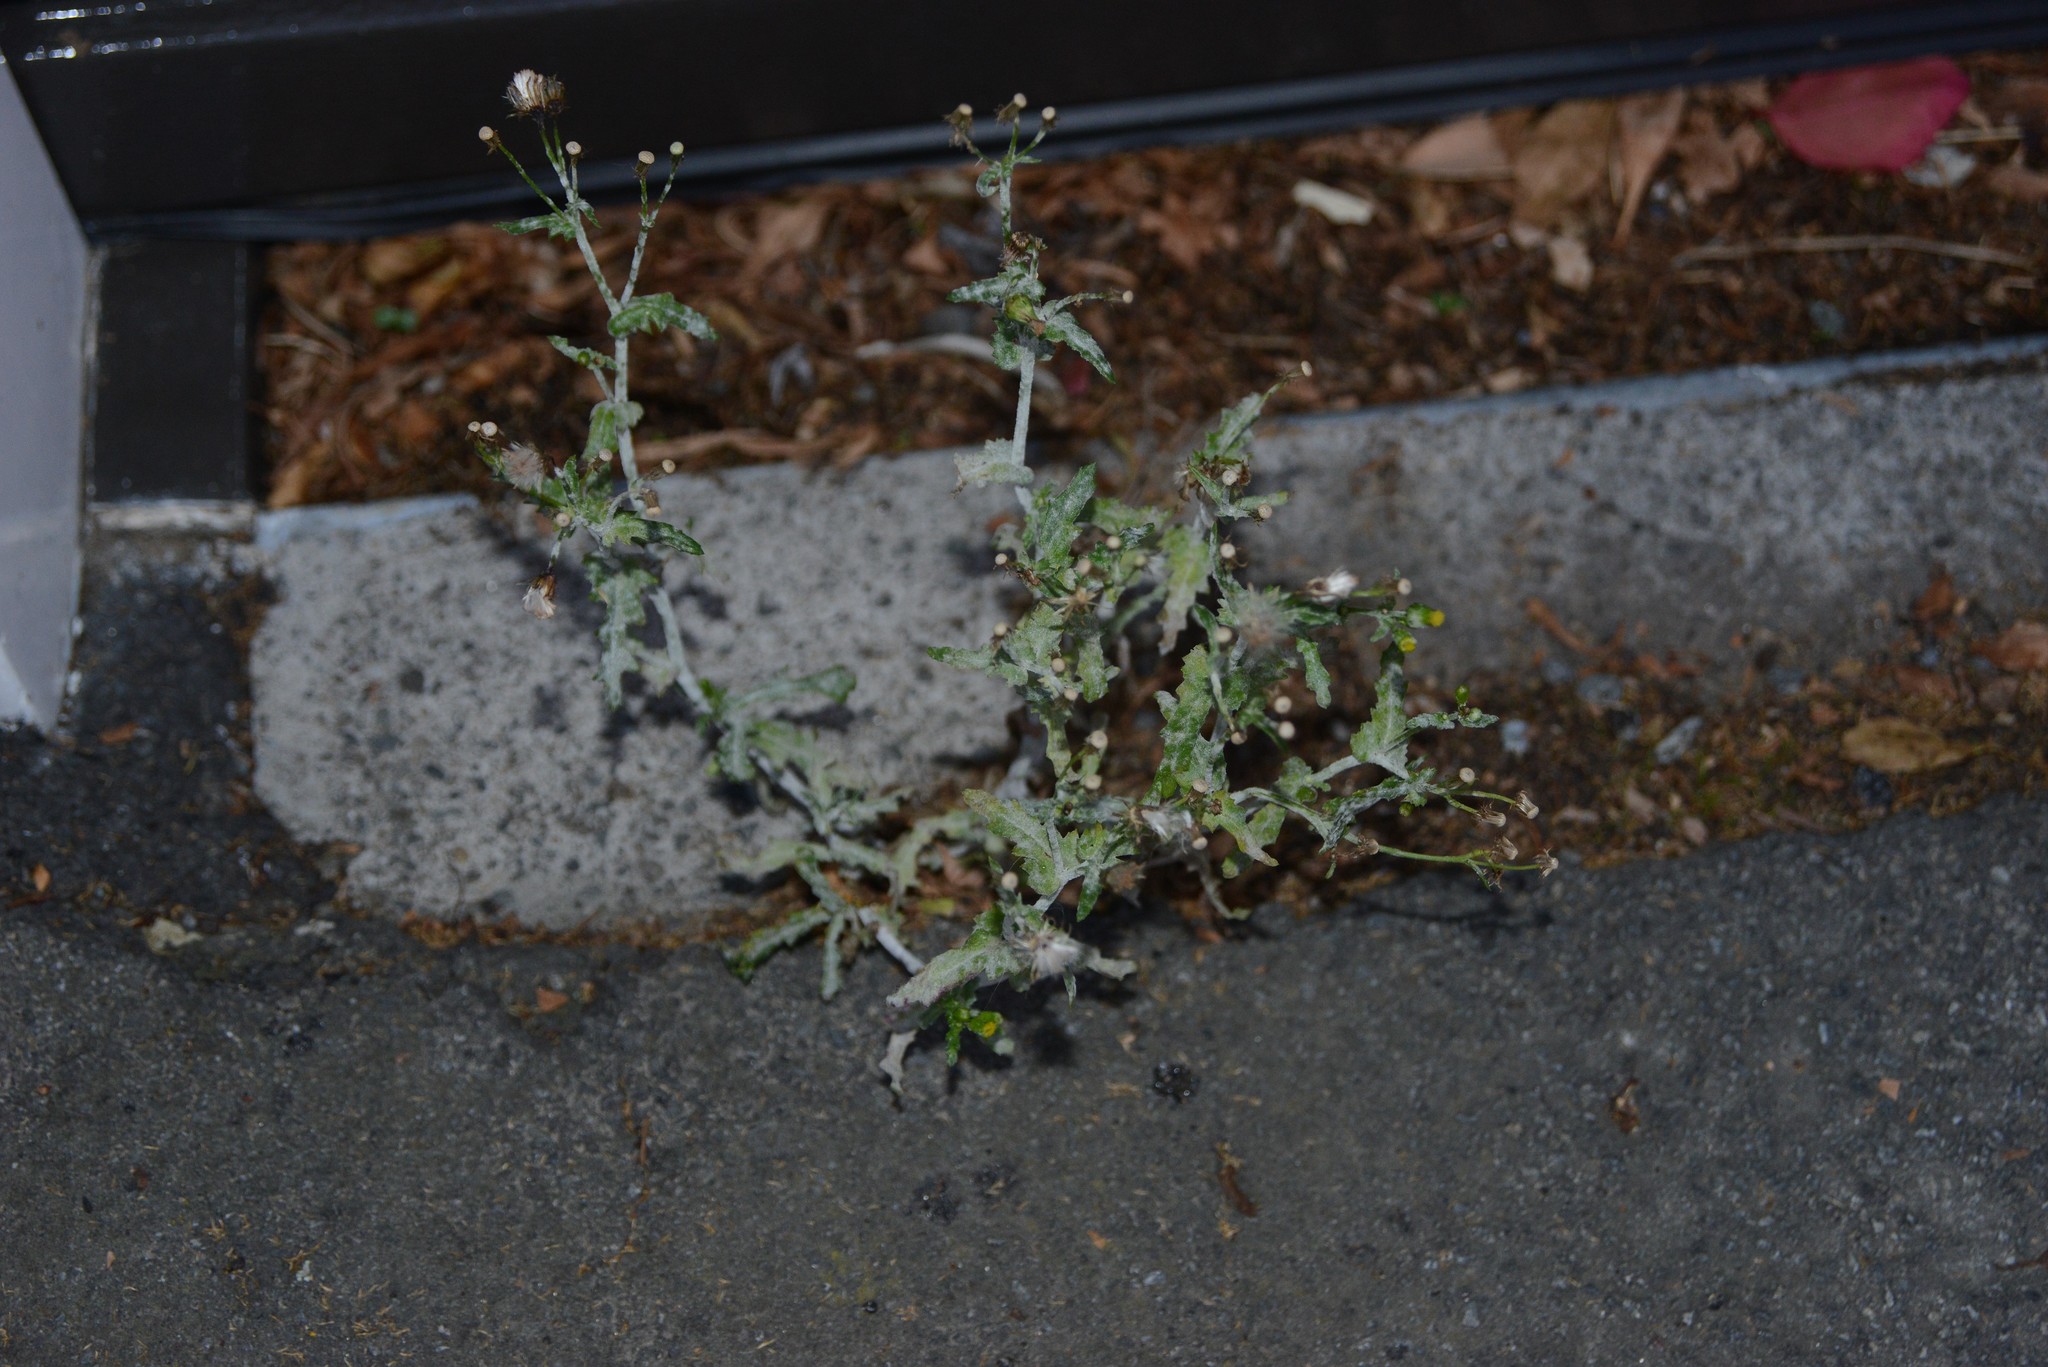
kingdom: Plantae
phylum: Tracheophyta
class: Magnoliopsida
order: Asterales
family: Asteraceae
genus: Senecio
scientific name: Senecio vulgaris
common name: Old-man-in-the-spring
